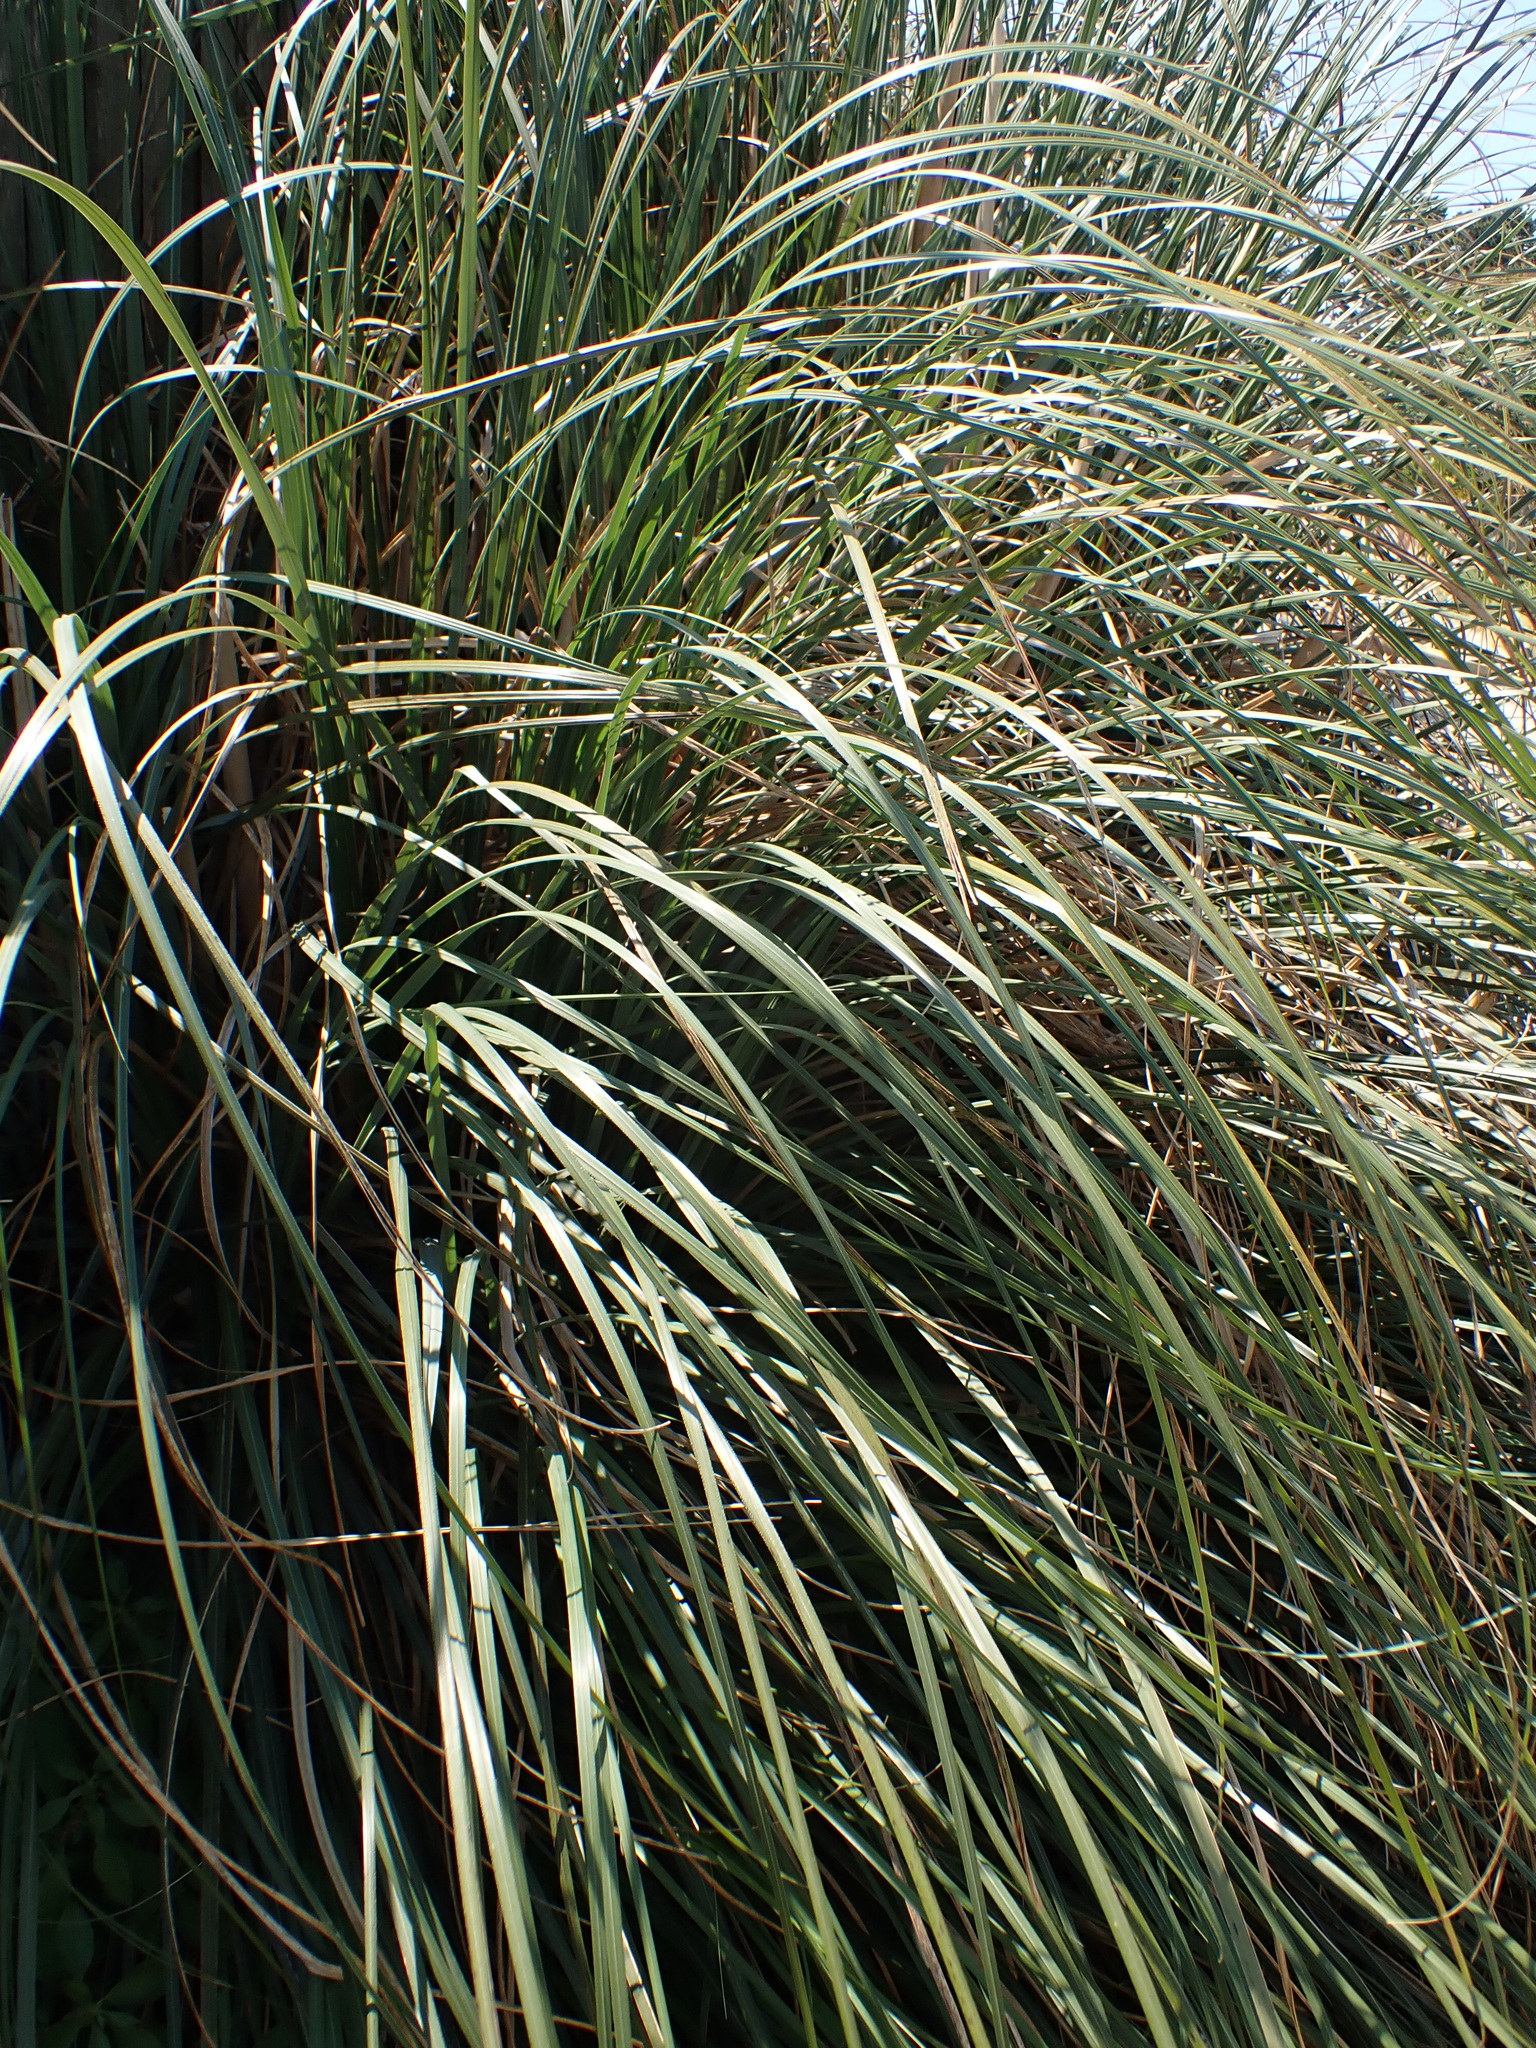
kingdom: Plantae
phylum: Tracheophyta
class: Liliopsida
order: Poales
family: Poaceae
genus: Cortaderia
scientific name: Cortaderia selloana
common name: Uruguayan pampas grass
